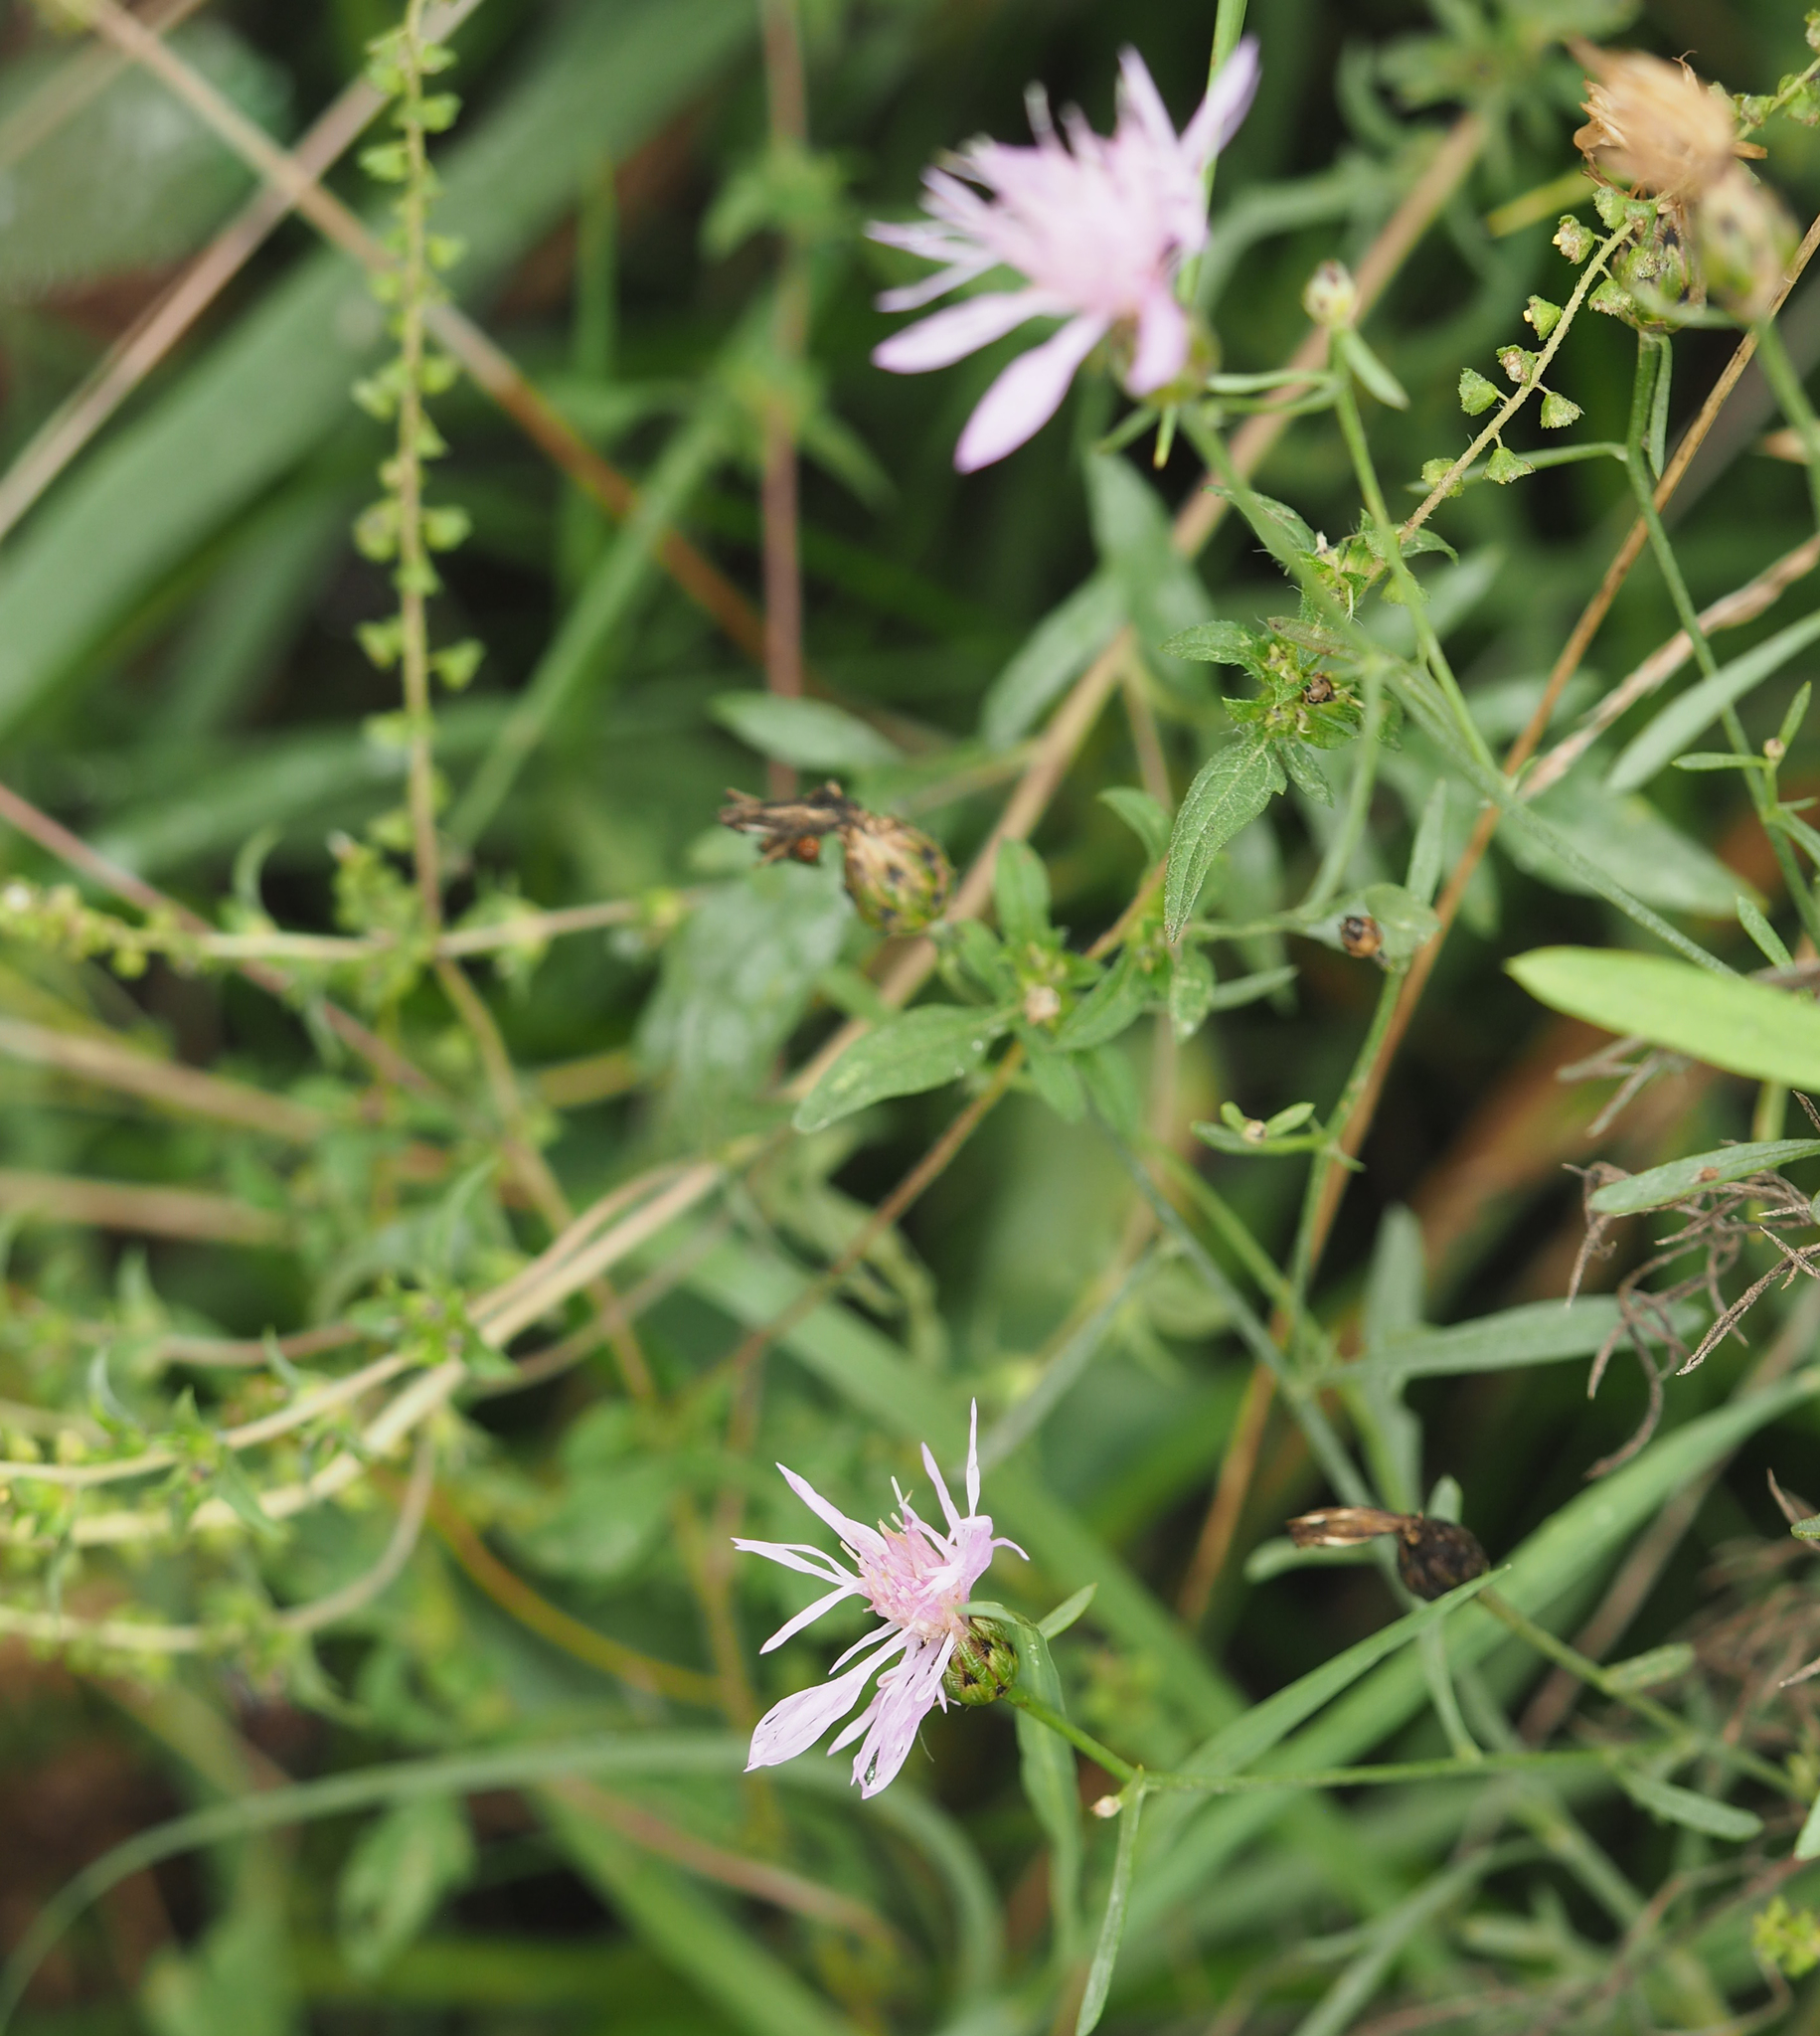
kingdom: Plantae
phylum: Tracheophyta
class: Magnoliopsida
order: Asterales
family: Asteraceae
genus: Centaurea
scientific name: Centaurea stoebe
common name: Spotted knapweed
